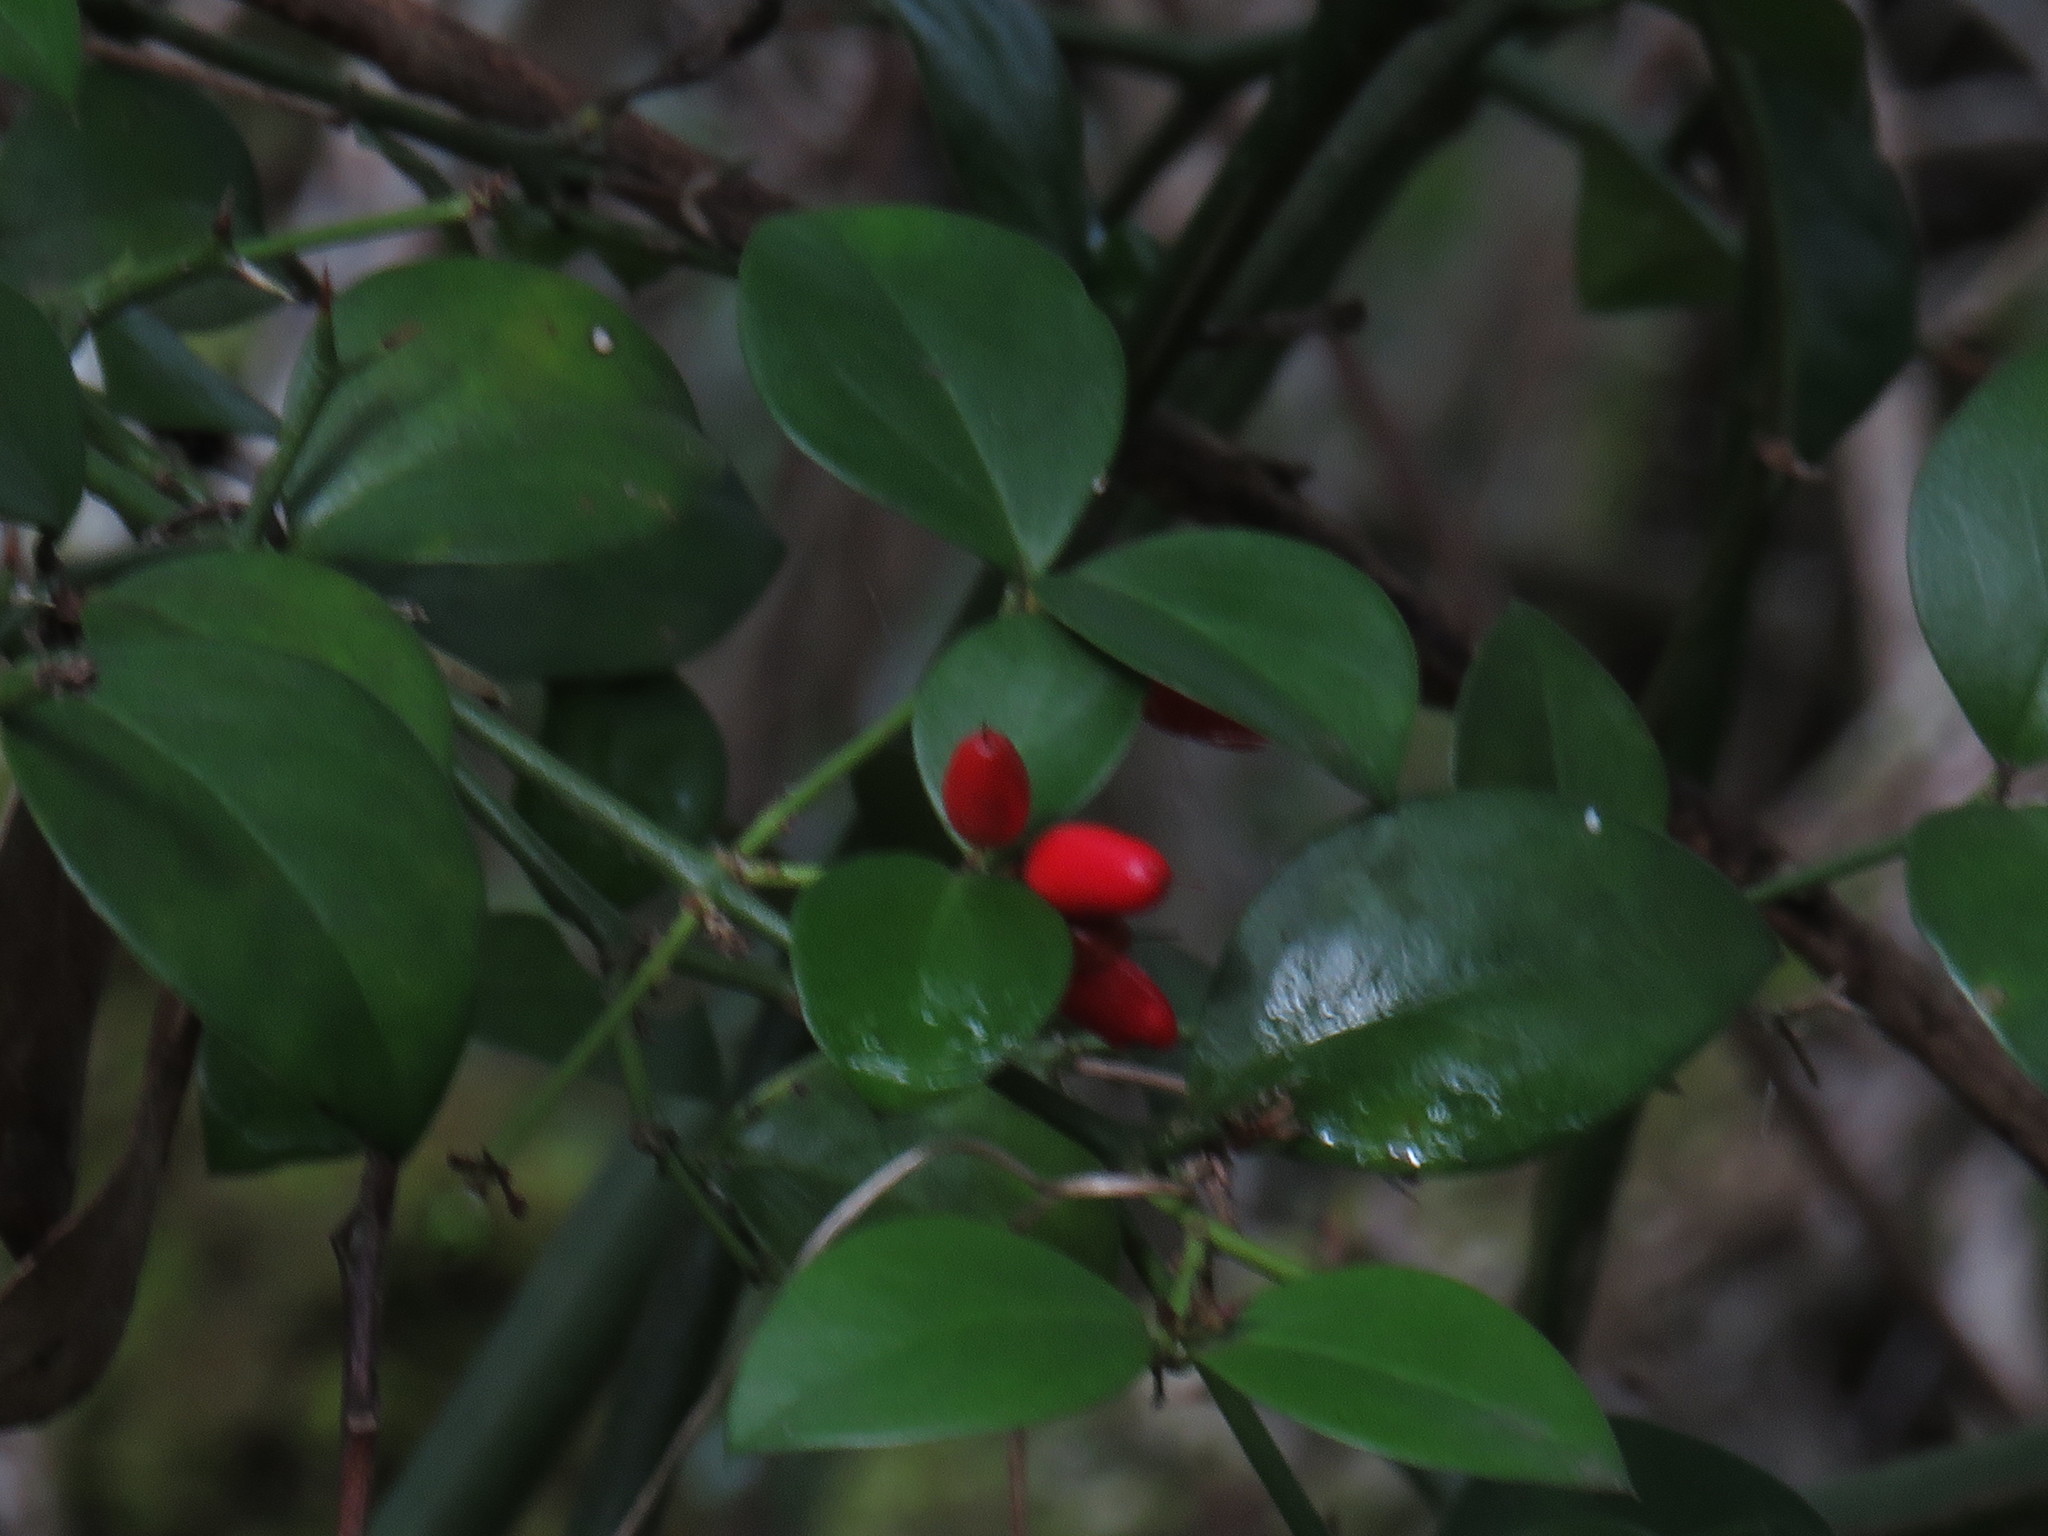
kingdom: Plantae
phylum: Tracheophyta
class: Magnoliopsida
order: Gentianales
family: Apocynaceae
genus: Carissa
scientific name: Carissa bispinosa
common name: Forest num-num
